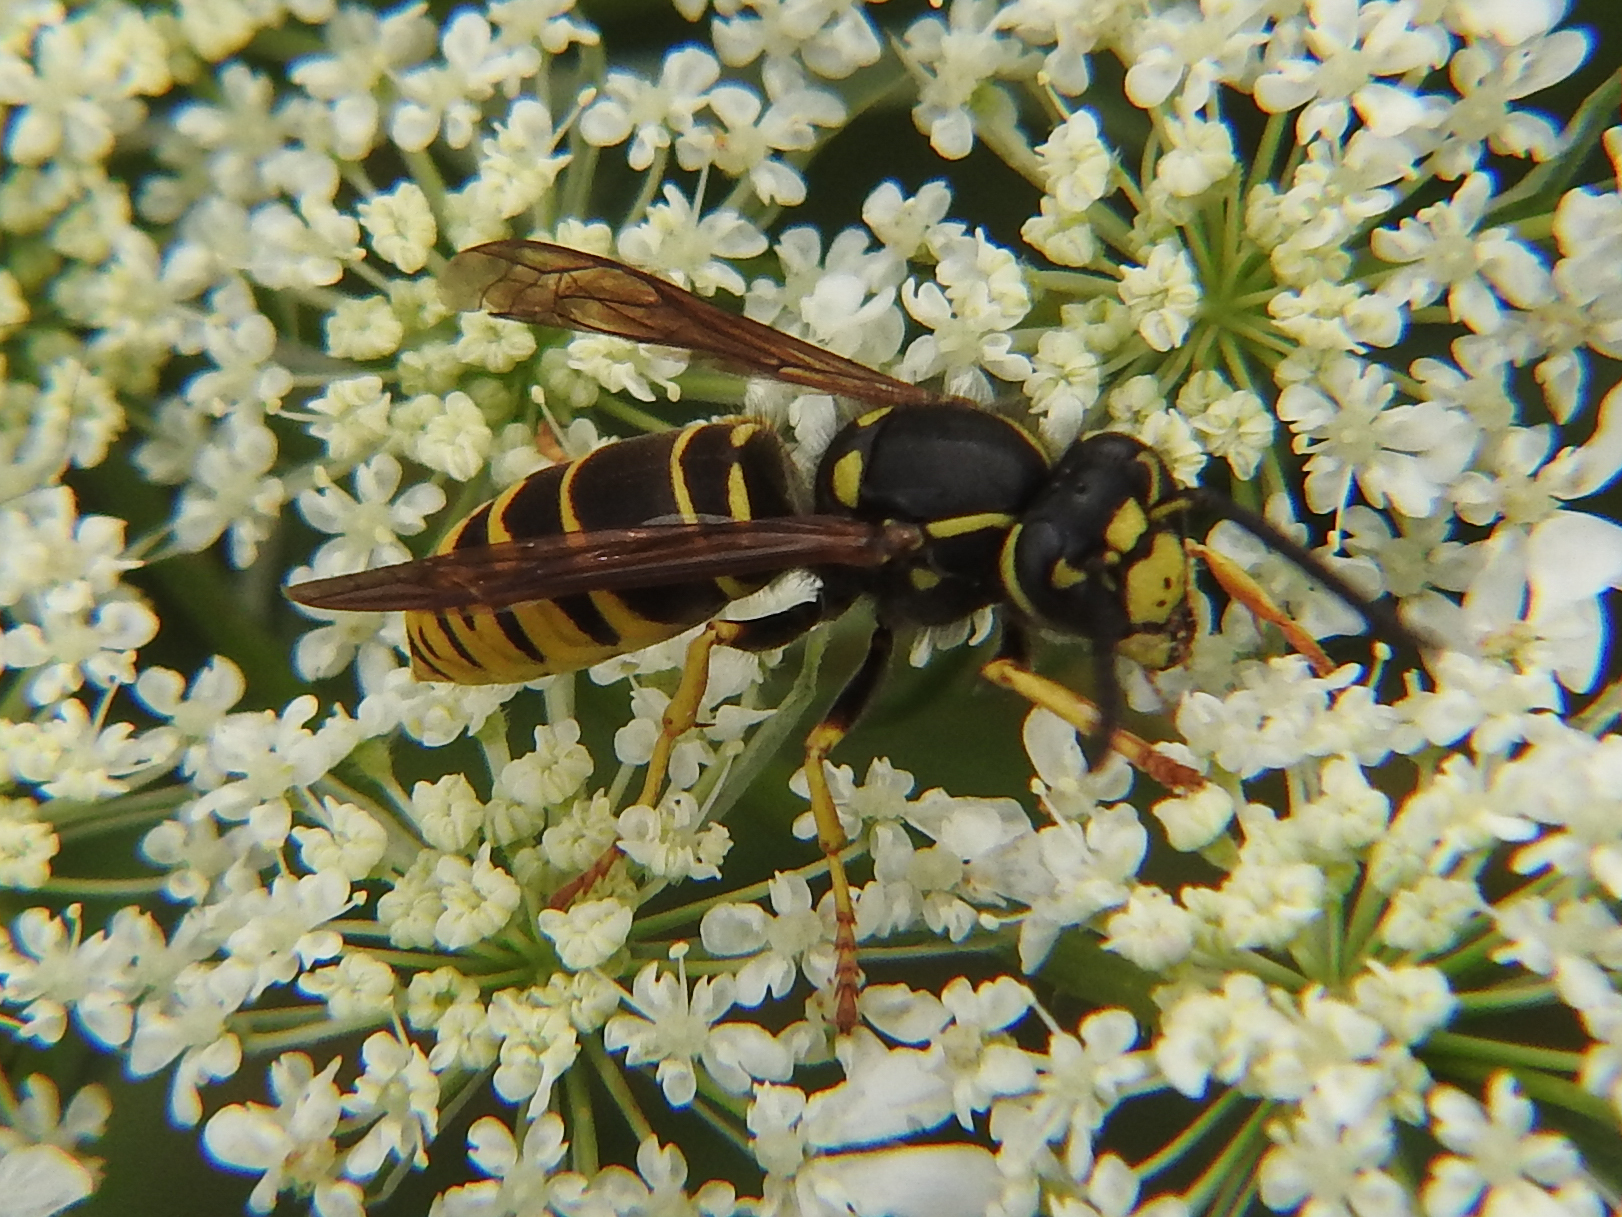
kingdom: Animalia
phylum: Arthropoda
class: Insecta
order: Hymenoptera
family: Vespidae
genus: Vespula
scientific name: Vespula vidua
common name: Widow yellowjacket
